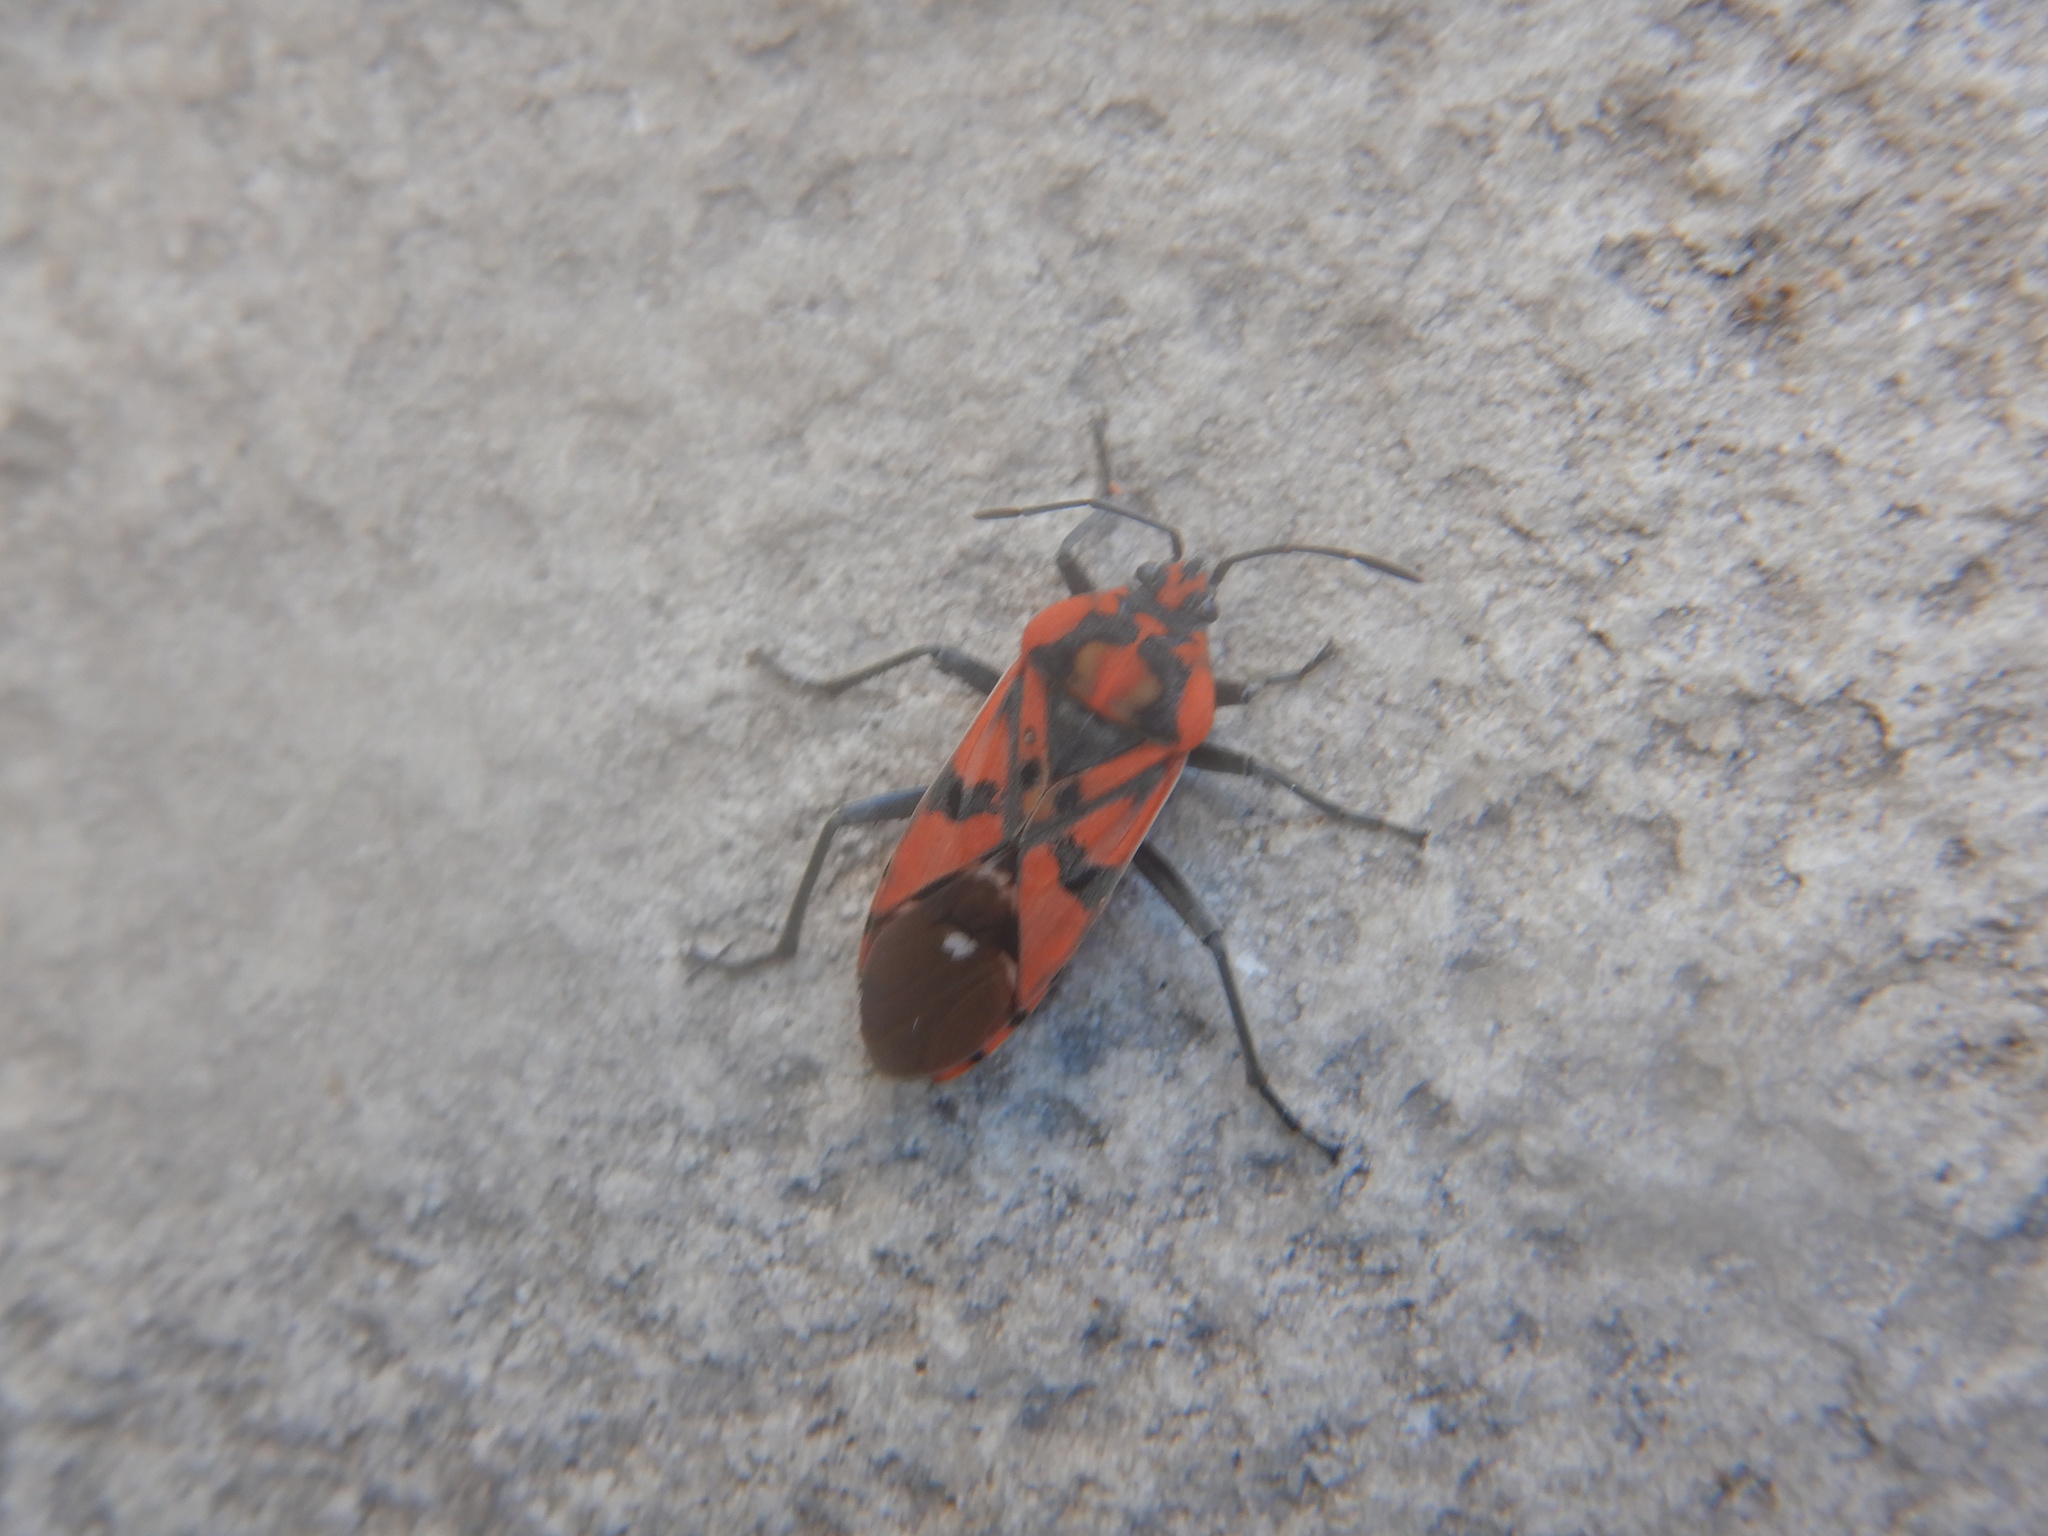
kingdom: Animalia
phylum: Arthropoda
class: Insecta
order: Hemiptera
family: Lygaeidae
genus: Spilostethus
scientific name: Spilostethus pandurus
